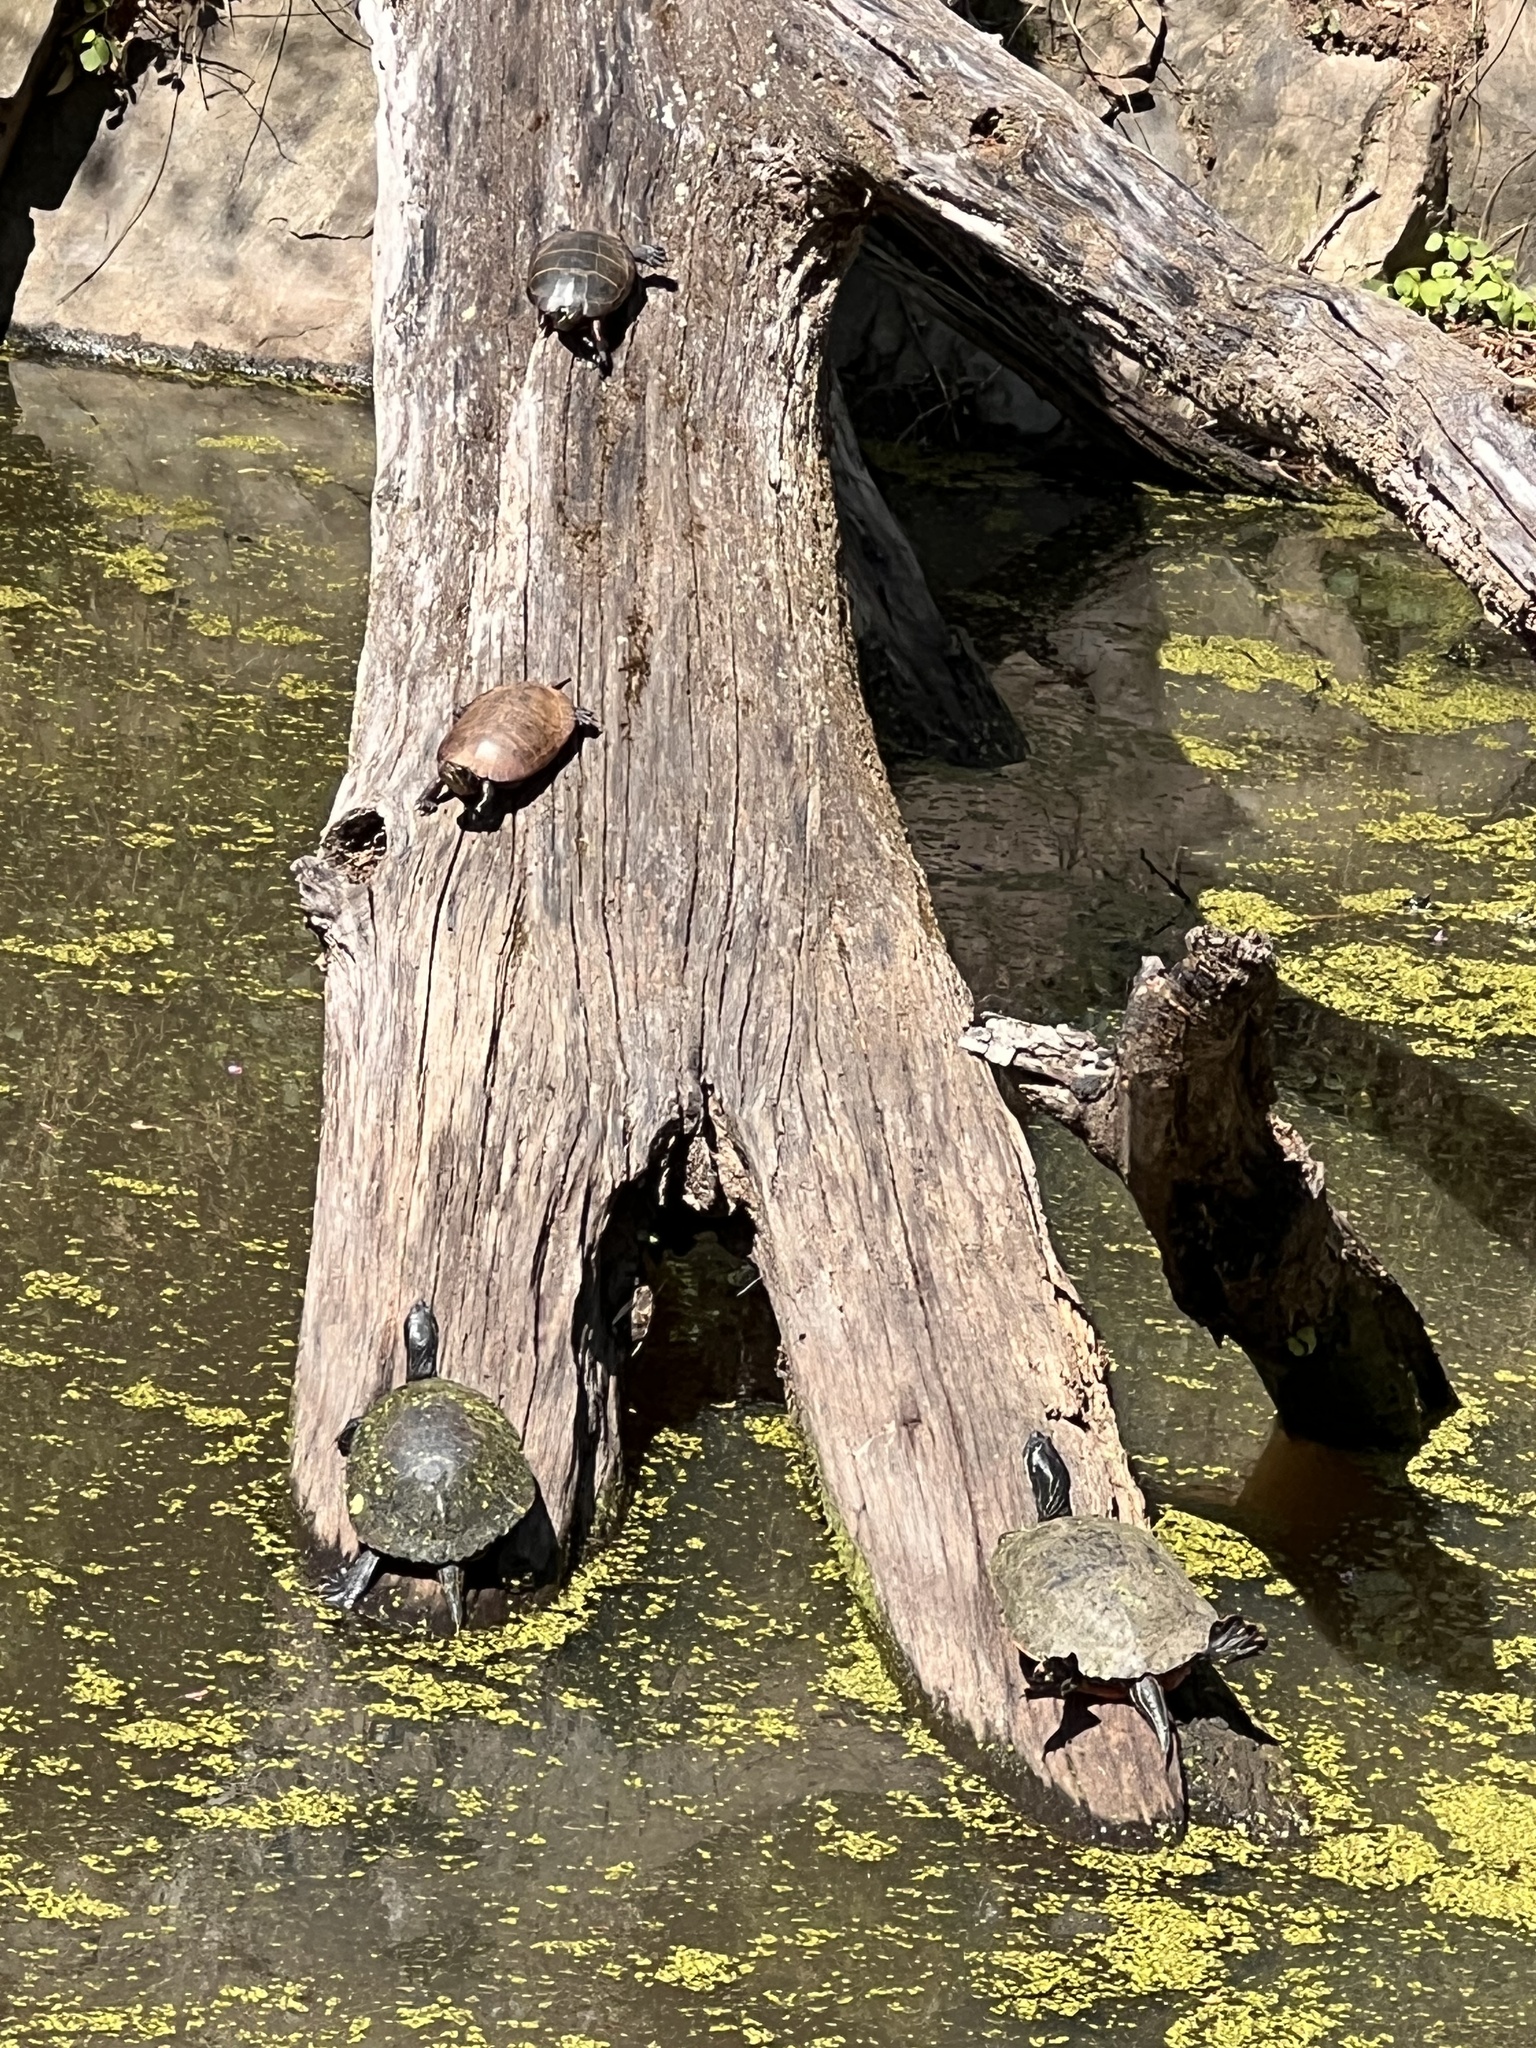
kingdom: Animalia
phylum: Chordata
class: Testudines
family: Emydidae
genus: Chrysemys
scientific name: Chrysemys picta
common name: Painted turtle
